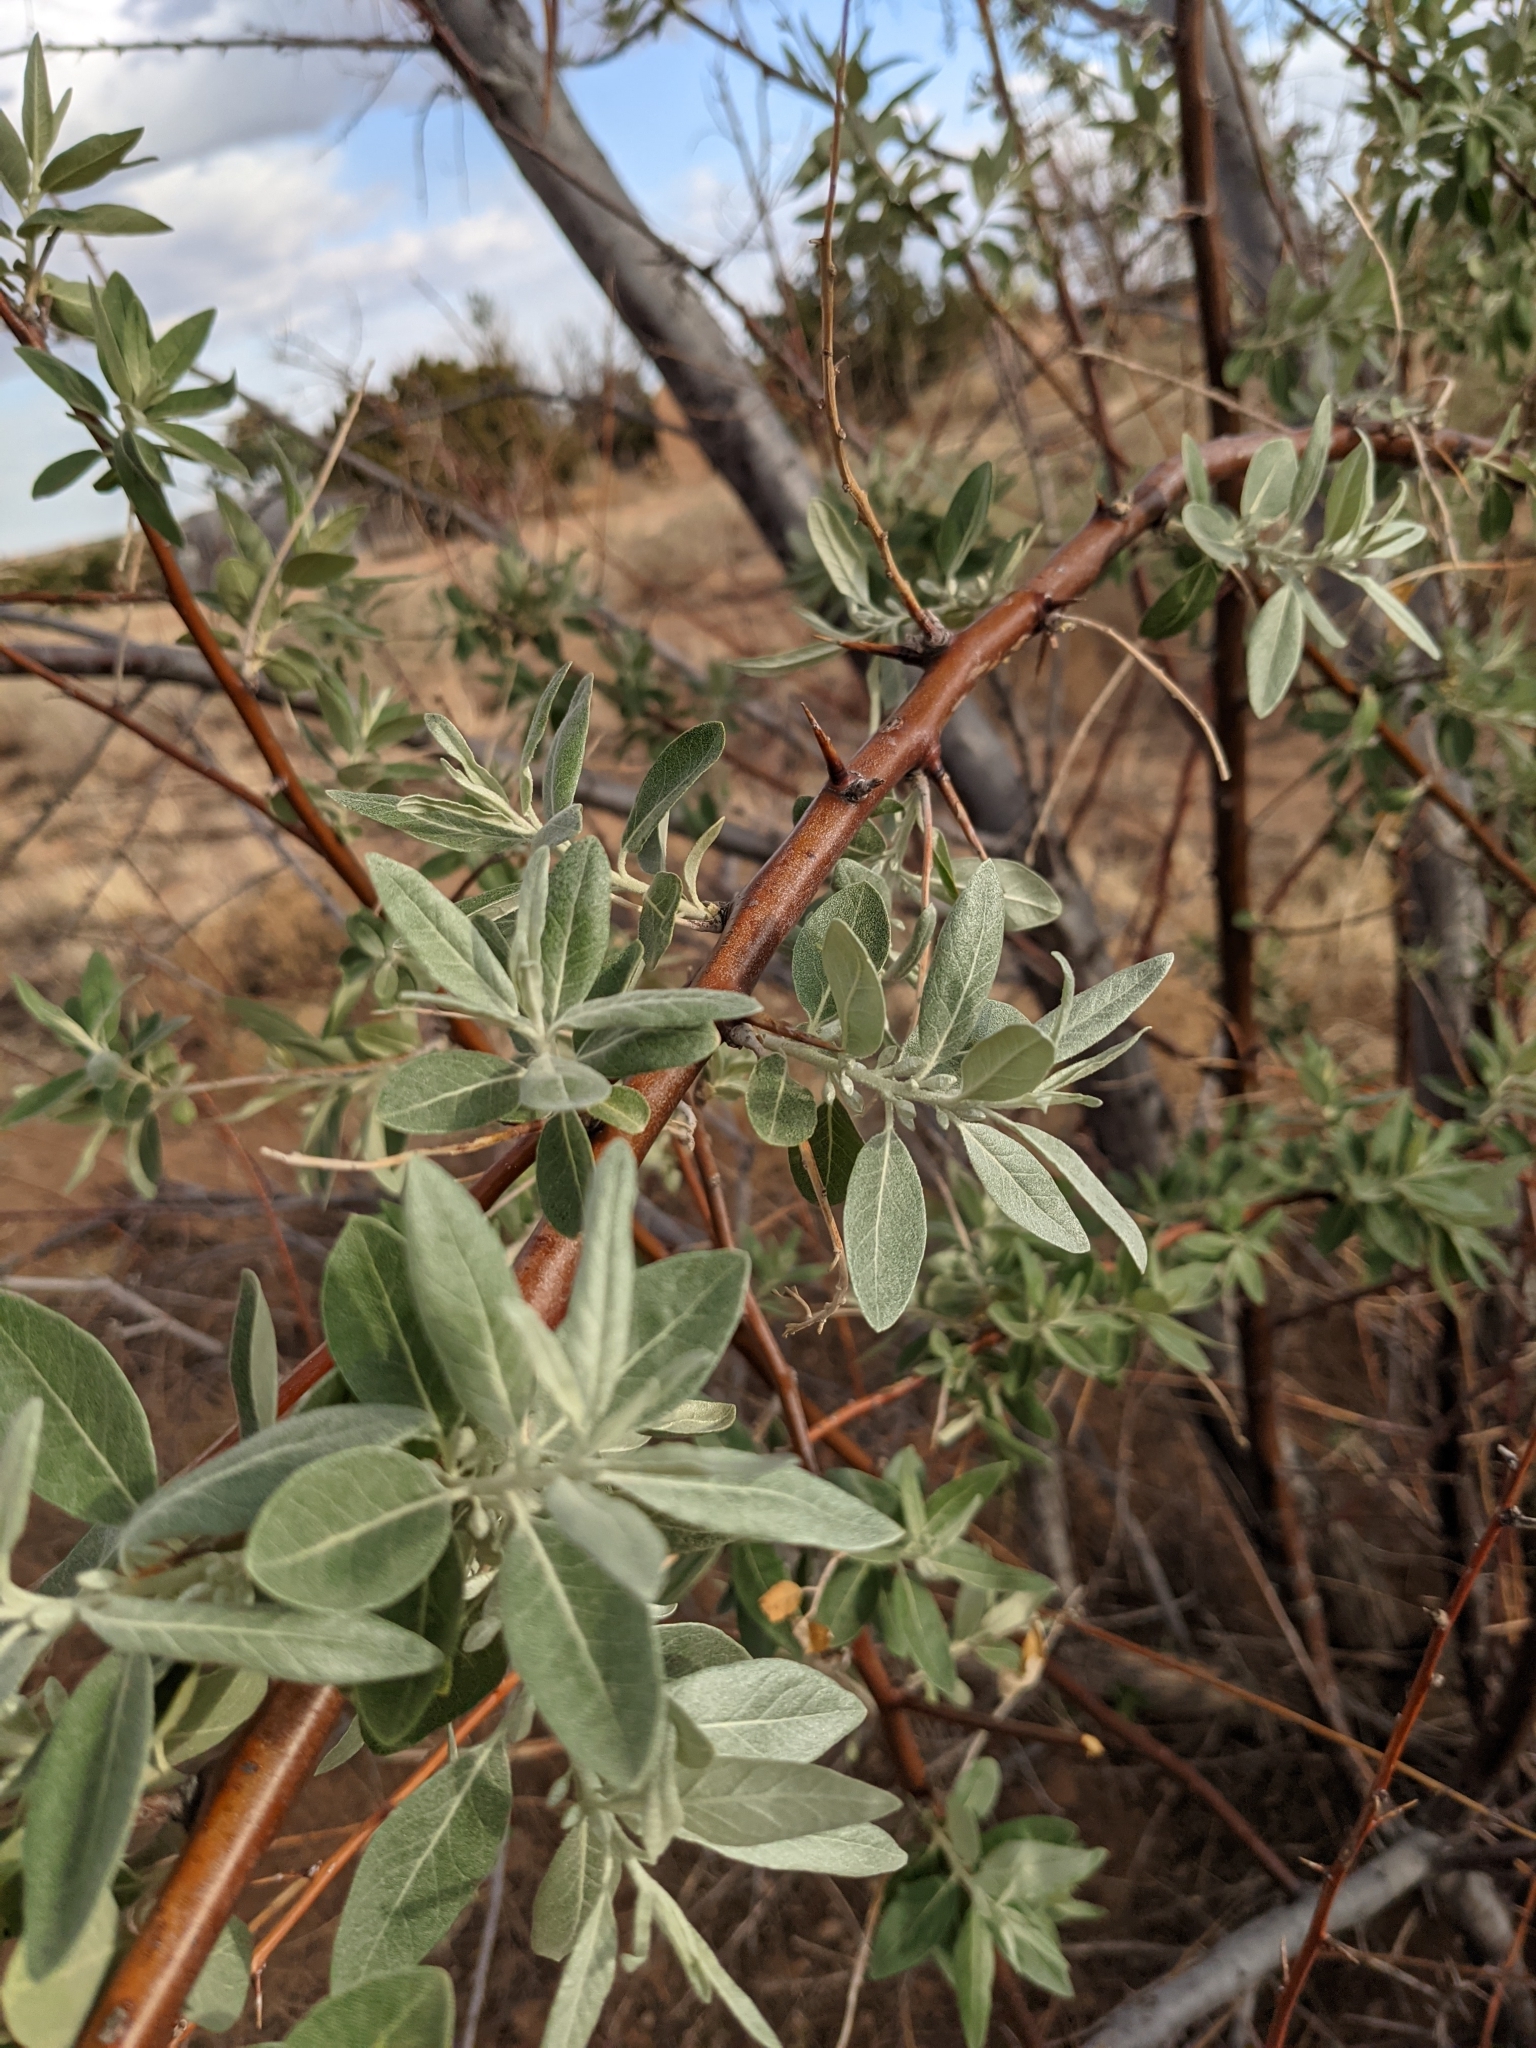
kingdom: Plantae
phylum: Tracheophyta
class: Magnoliopsida
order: Rosales
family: Elaeagnaceae
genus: Elaeagnus
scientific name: Elaeagnus angustifolia
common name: Russian olive
